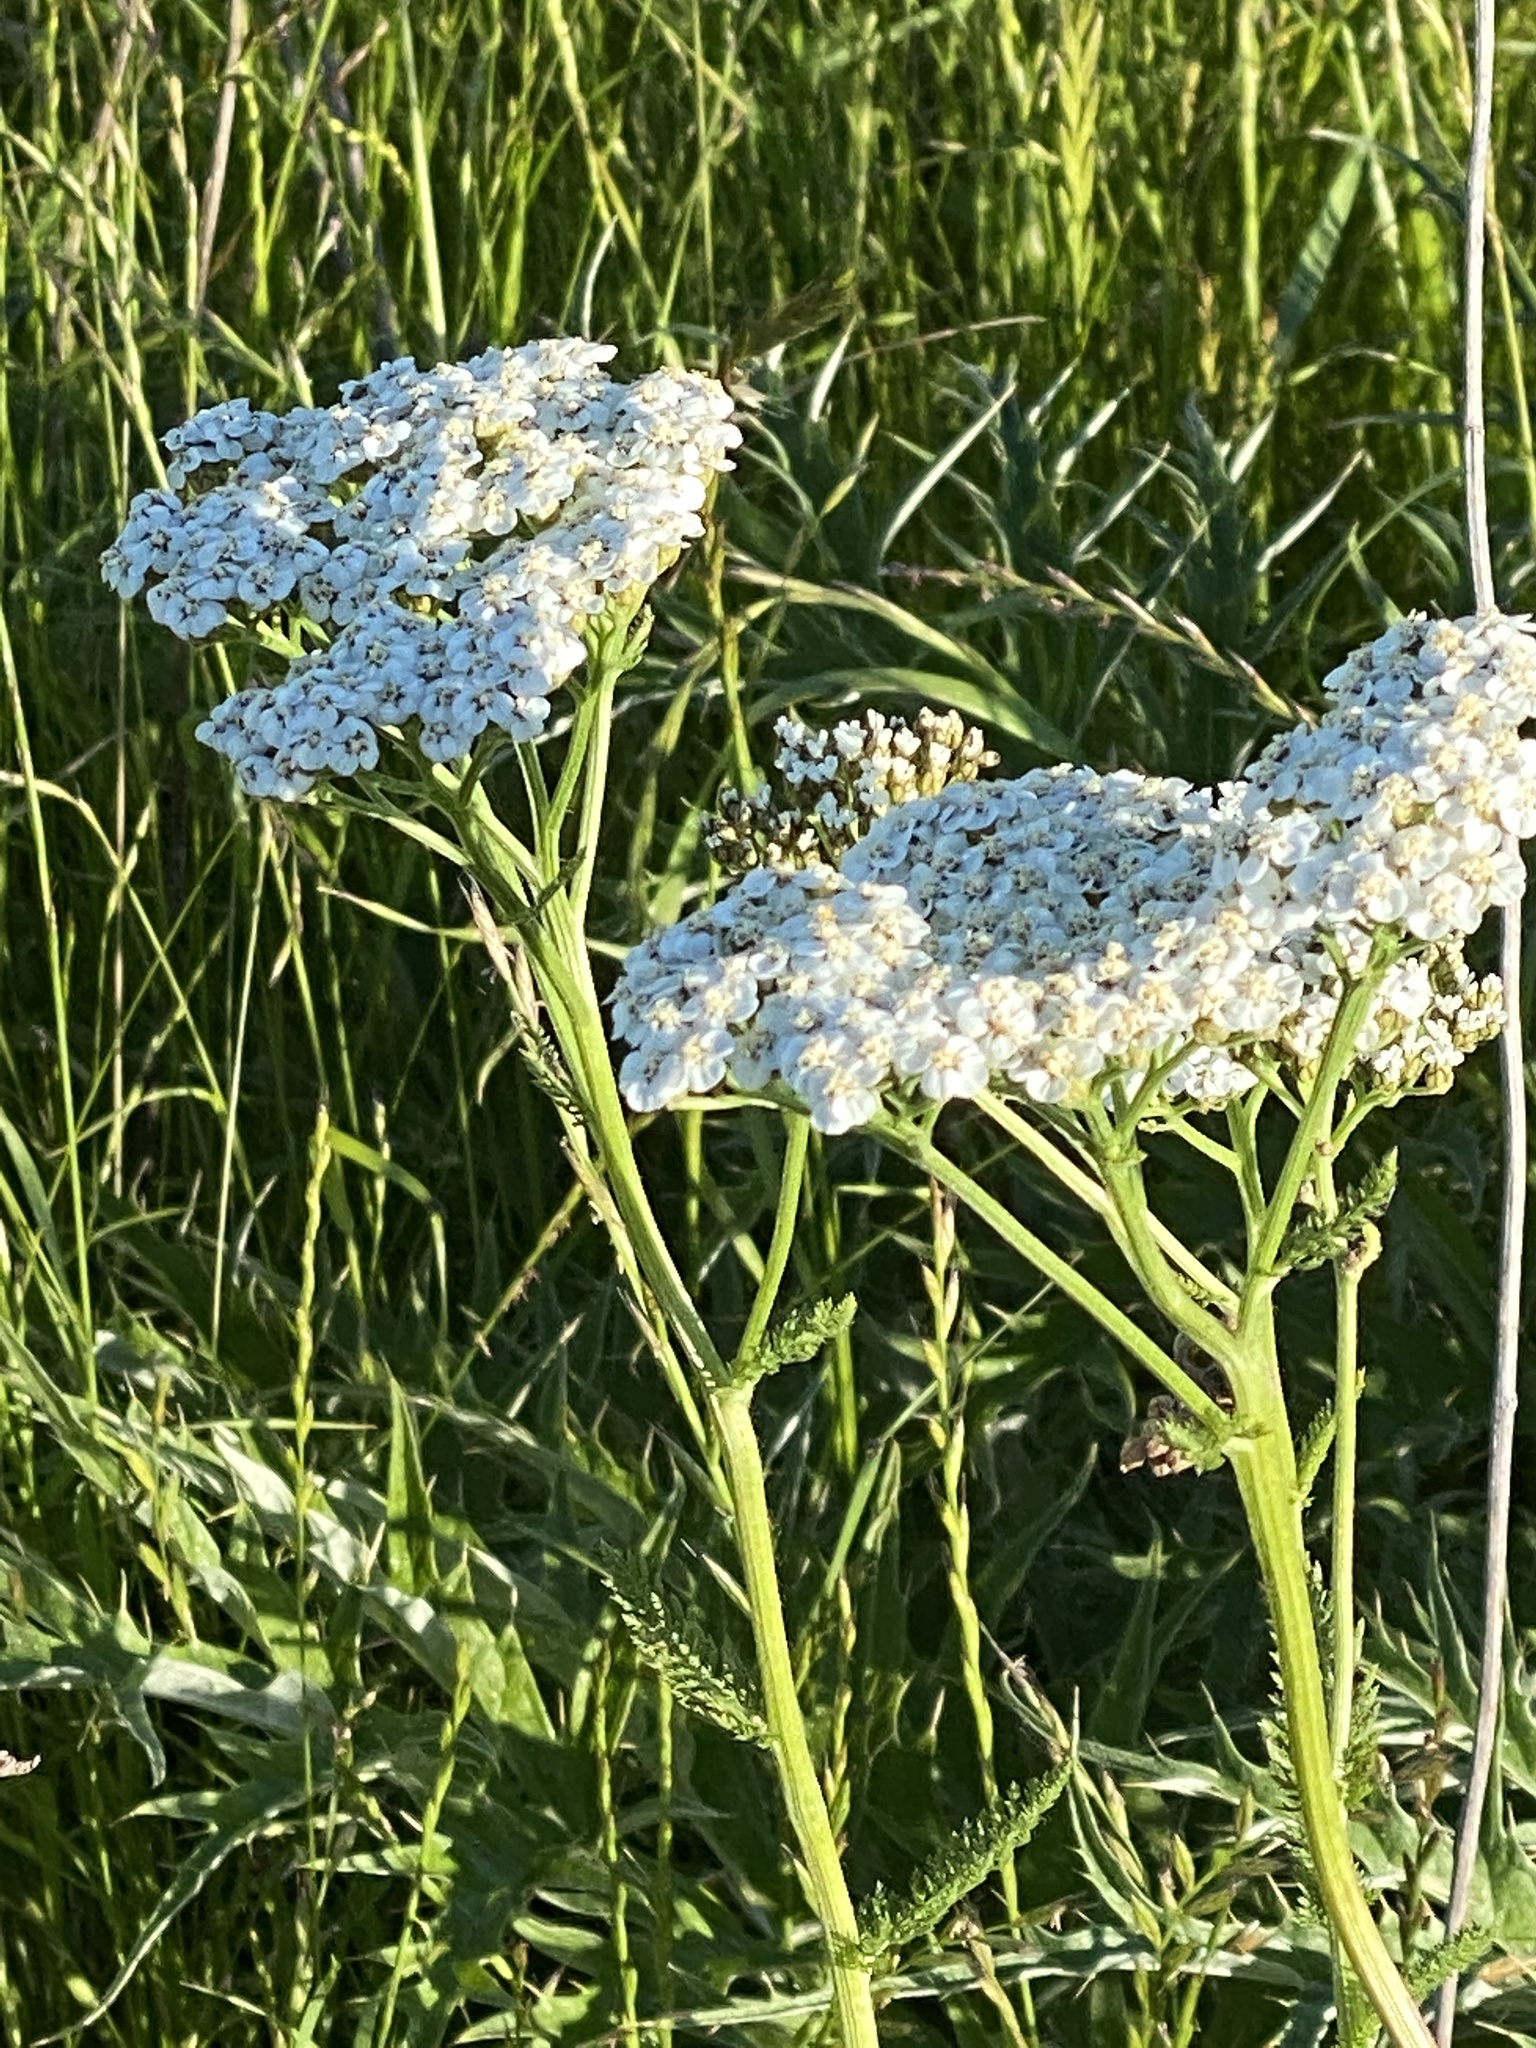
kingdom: Plantae
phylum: Tracheophyta
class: Magnoliopsida
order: Asterales
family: Asteraceae
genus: Achillea
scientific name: Achillea millefolium
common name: Yarrow
